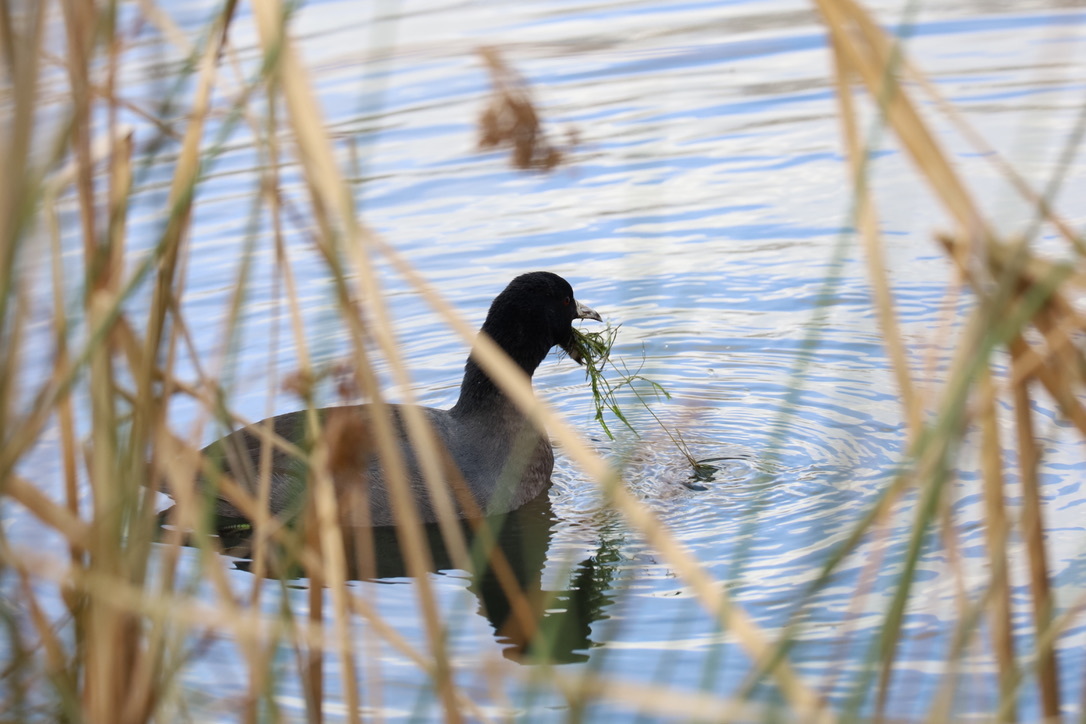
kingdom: Animalia
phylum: Chordata
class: Aves
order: Gruiformes
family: Rallidae
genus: Fulica
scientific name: Fulica americana
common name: American coot
